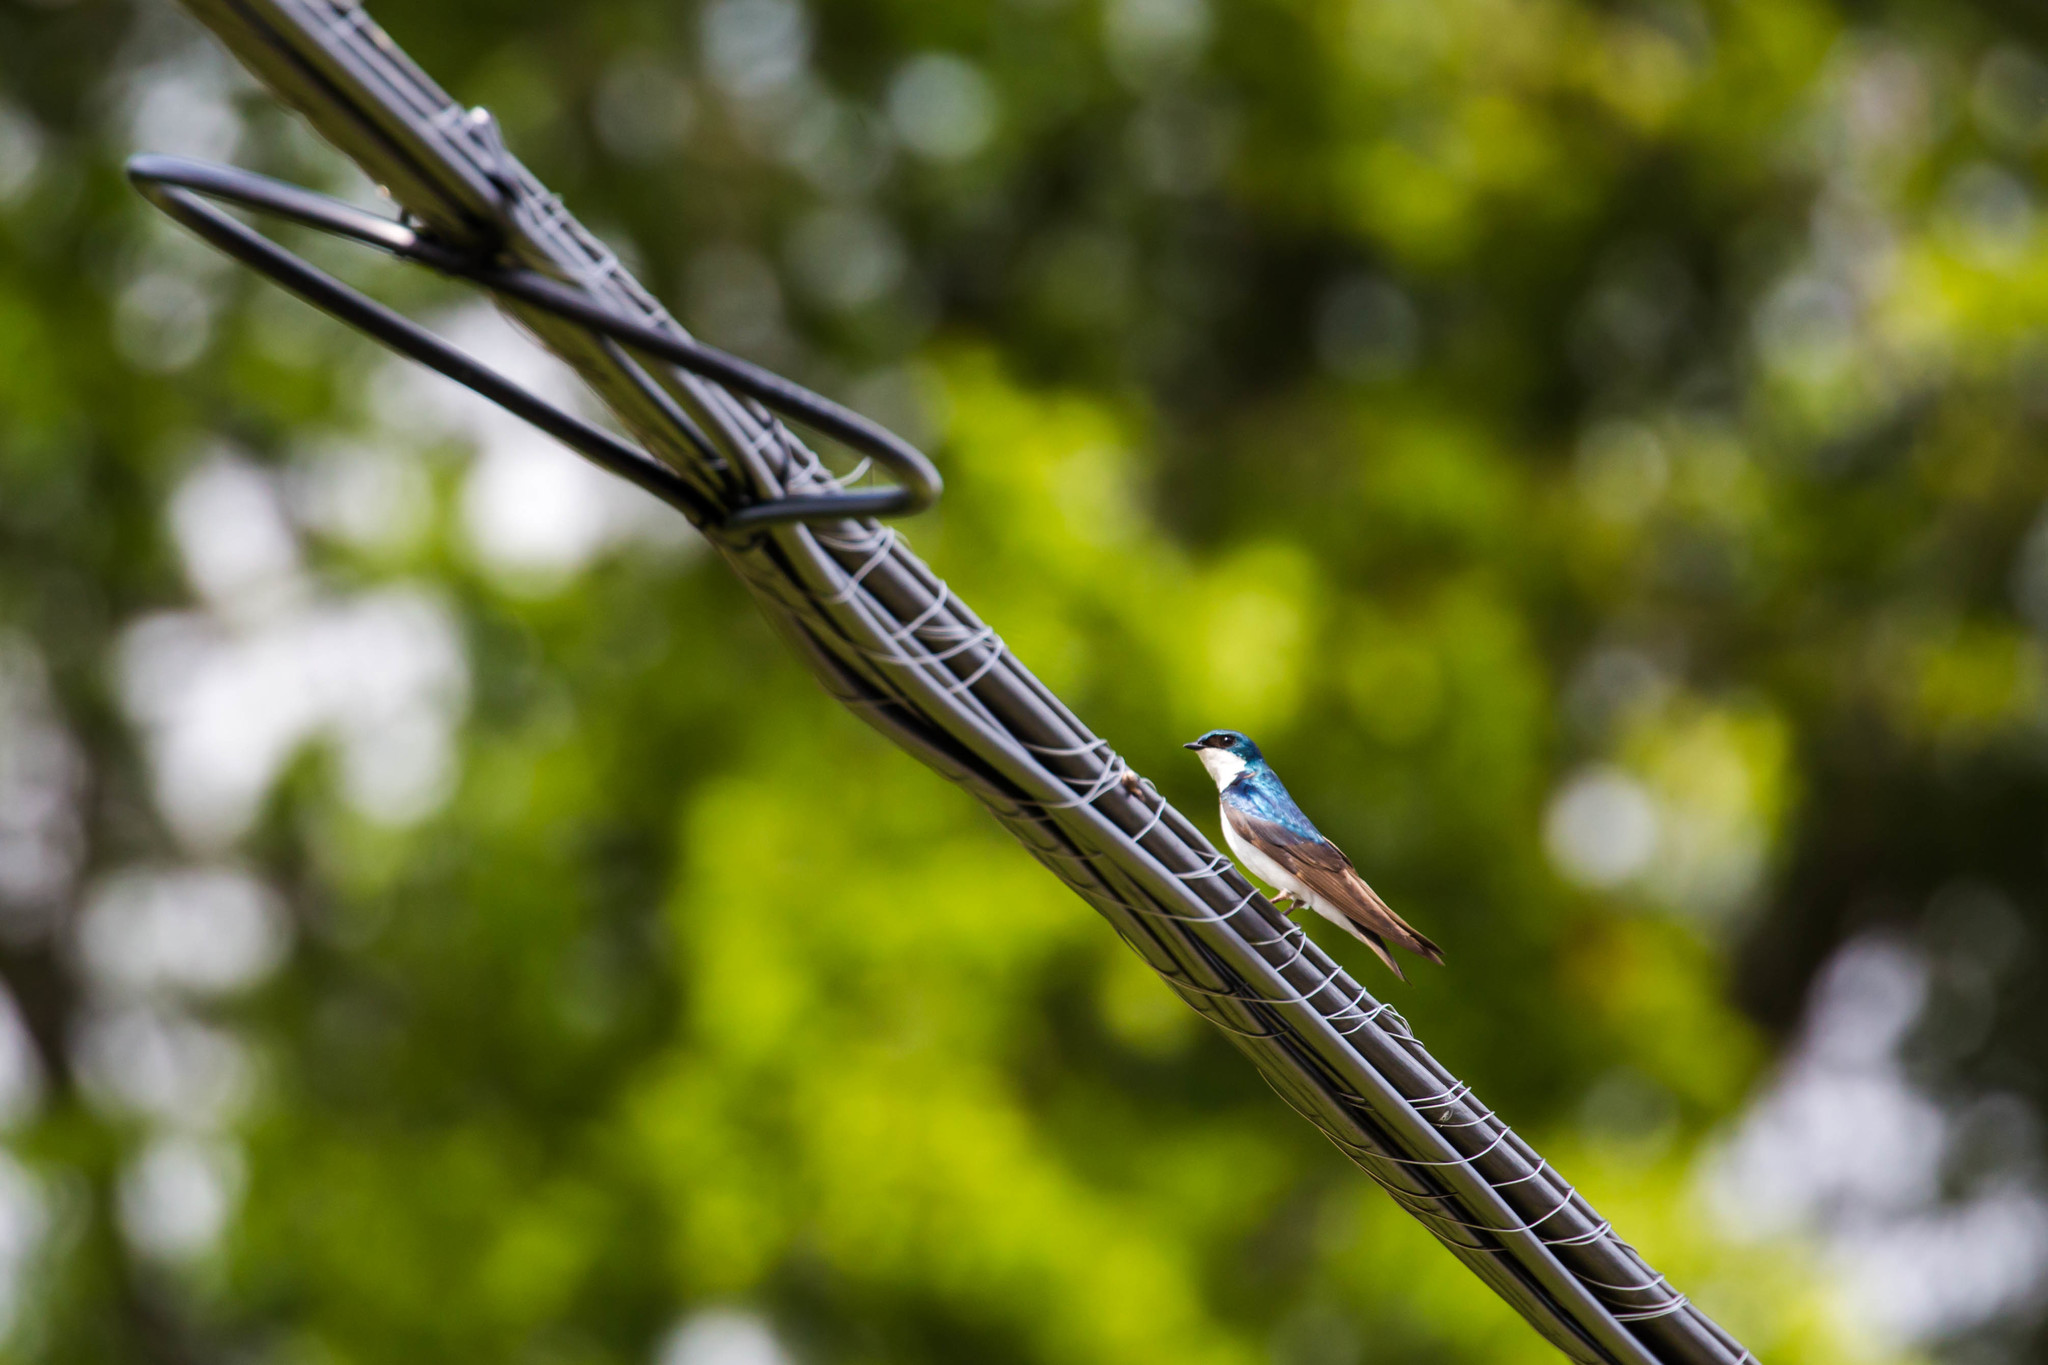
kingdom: Animalia
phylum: Chordata
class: Aves
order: Passeriformes
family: Hirundinidae
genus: Tachycineta
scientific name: Tachycineta bicolor
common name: Tree swallow
